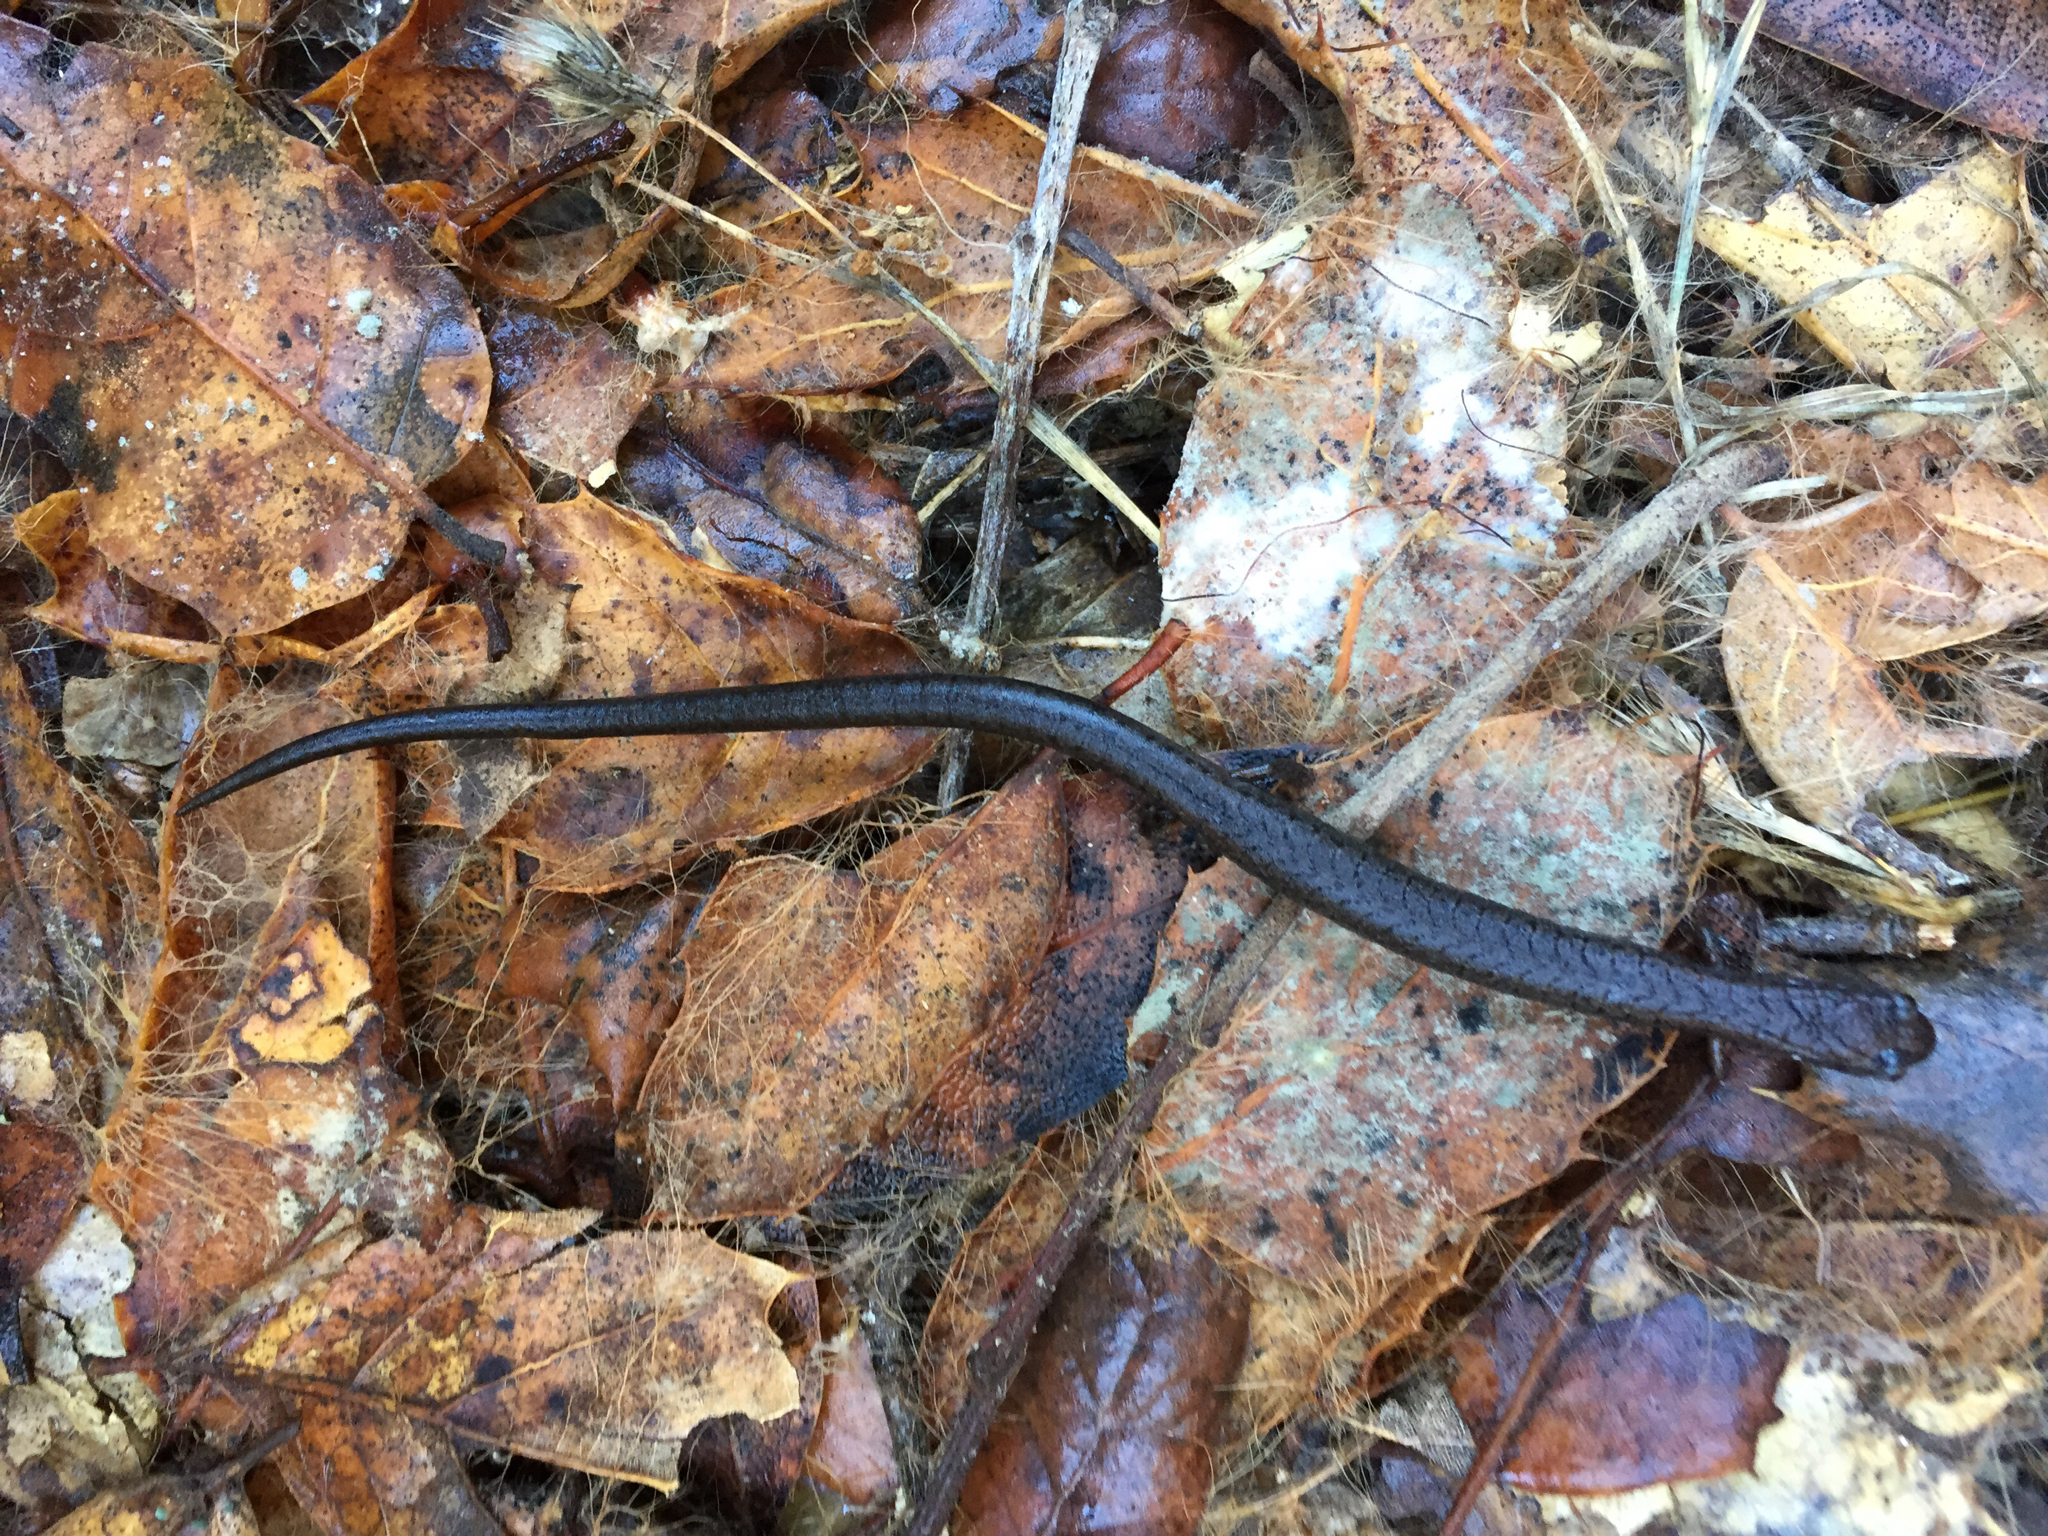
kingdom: Animalia
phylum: Chordata
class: Amphibia
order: Caudata
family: Plethodontidae
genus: Batrachoseps
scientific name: Batrachoseps attenuatus
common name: California slender salamander
